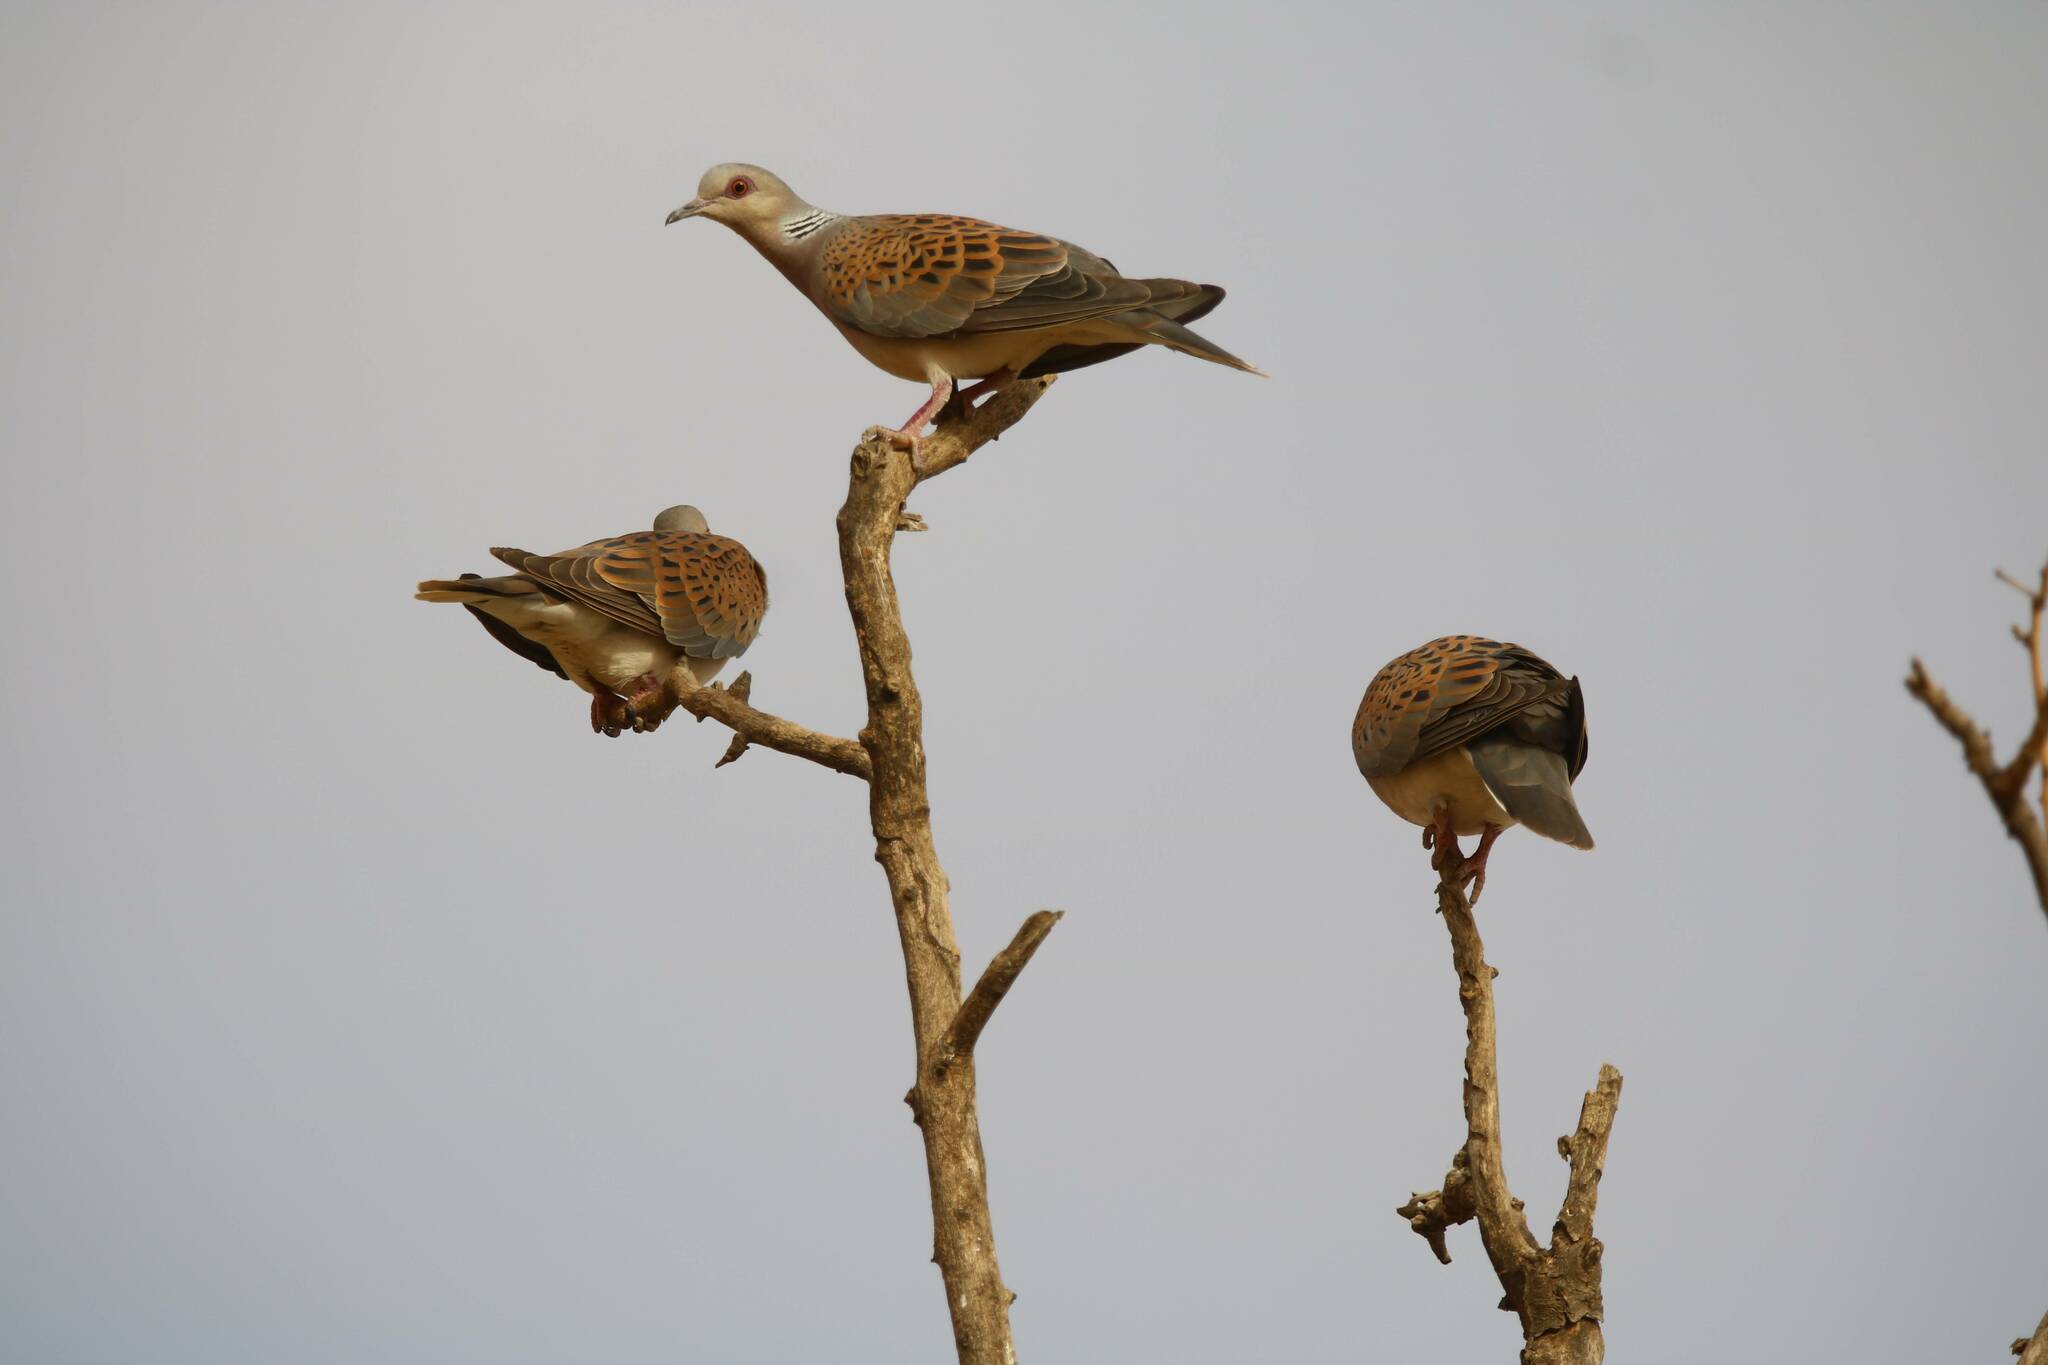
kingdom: Animalia
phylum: Chordata
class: Aves
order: Columbiformes
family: Columbidae
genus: Streptopelia
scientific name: Streptopelia turtur
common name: European turtle dove
